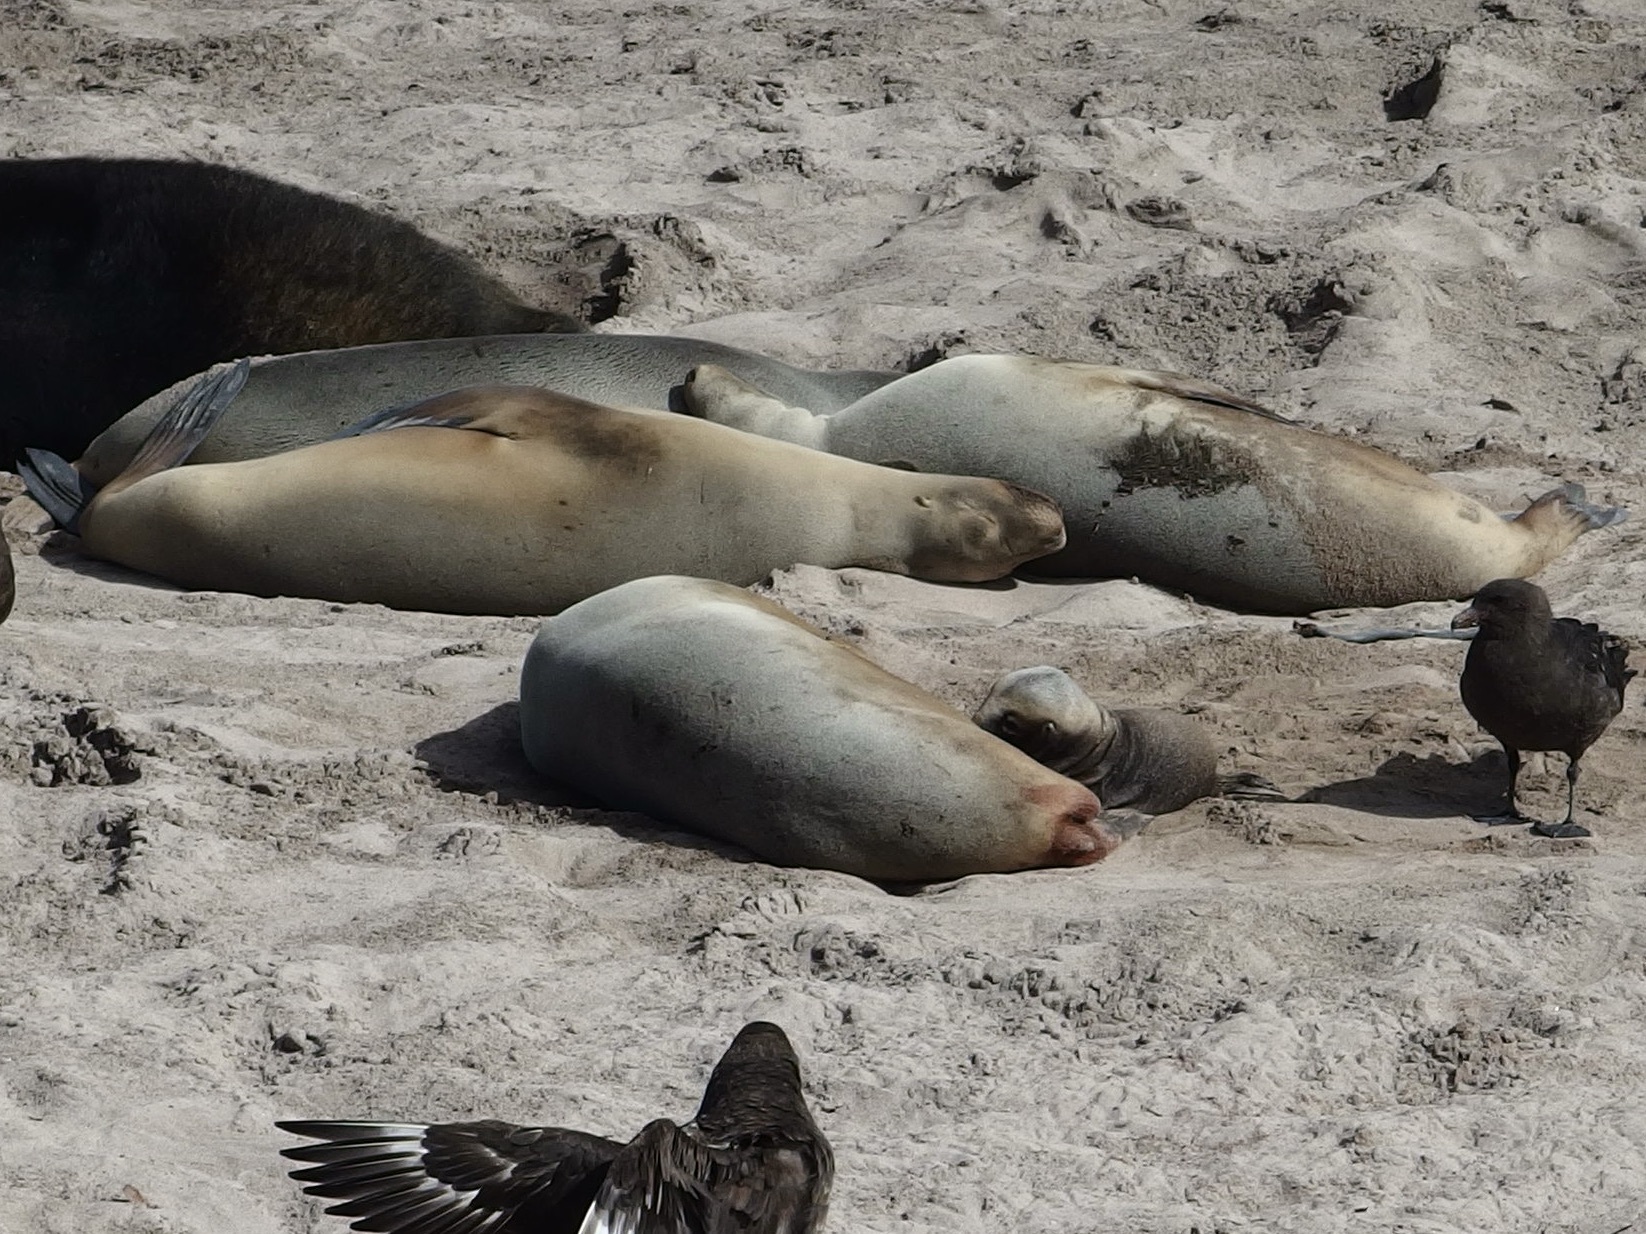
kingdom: Animalia
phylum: Chordata
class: Mammalia
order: Carnivora
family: Otariidae
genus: Phocarctos
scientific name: Phocarctos hookeri
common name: New zealand sea lion
